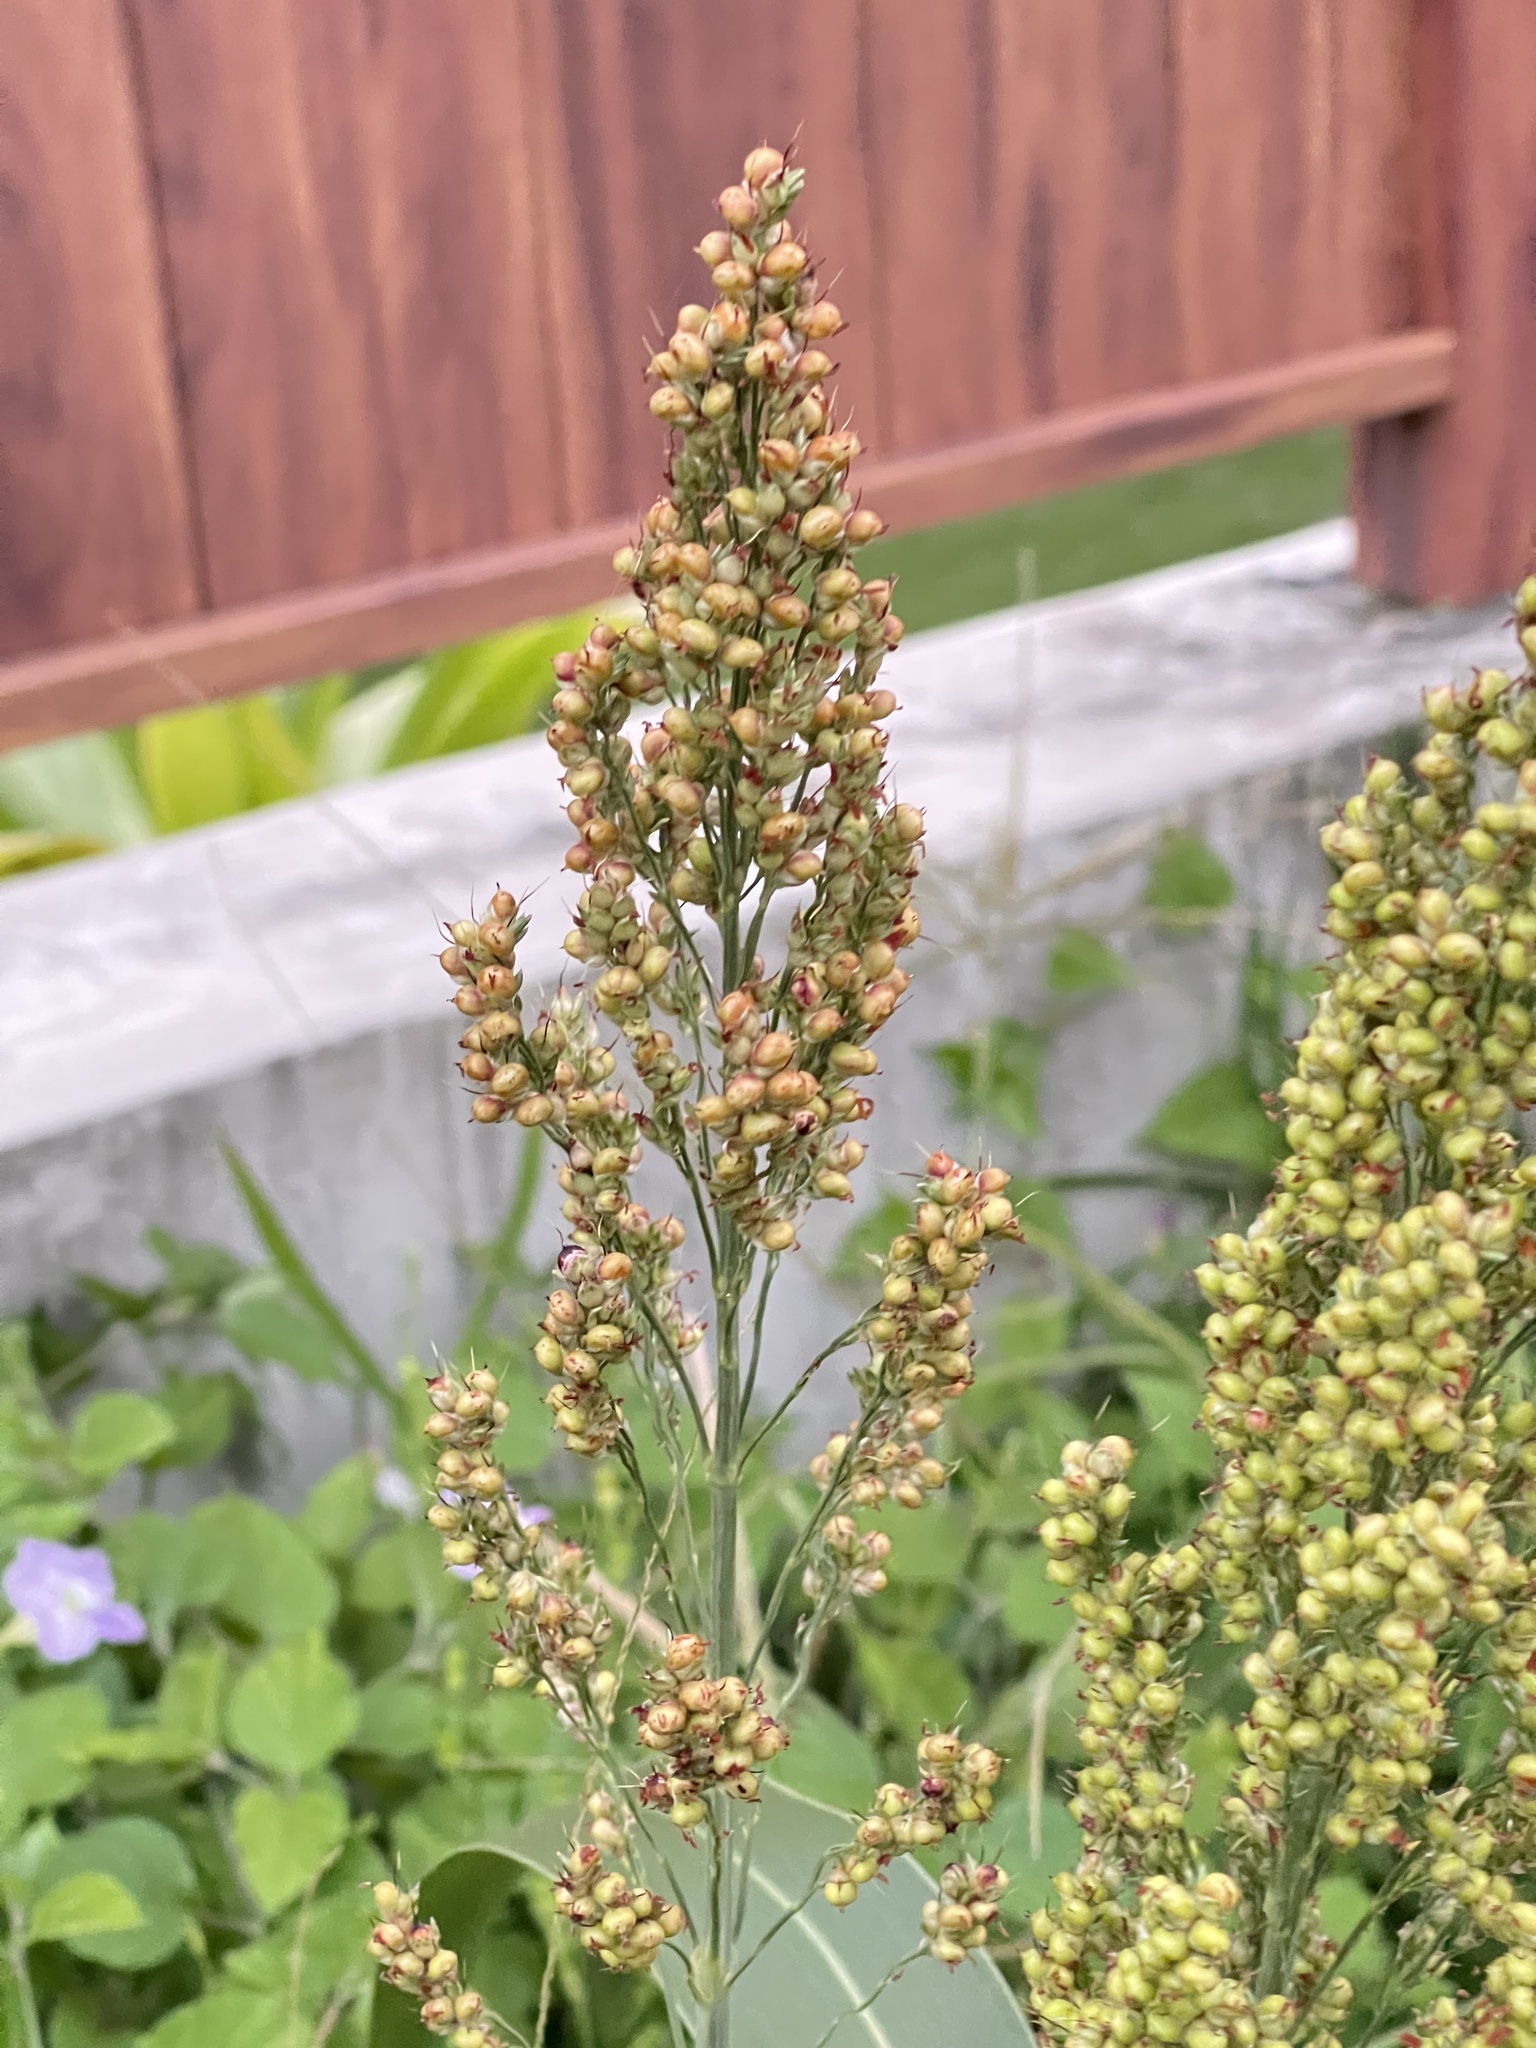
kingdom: Plantae
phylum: Tracheophyta
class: Liliopsida
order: Poales
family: Poaceae
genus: Sorghum
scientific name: Sorghum bicolor
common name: Sorghum
